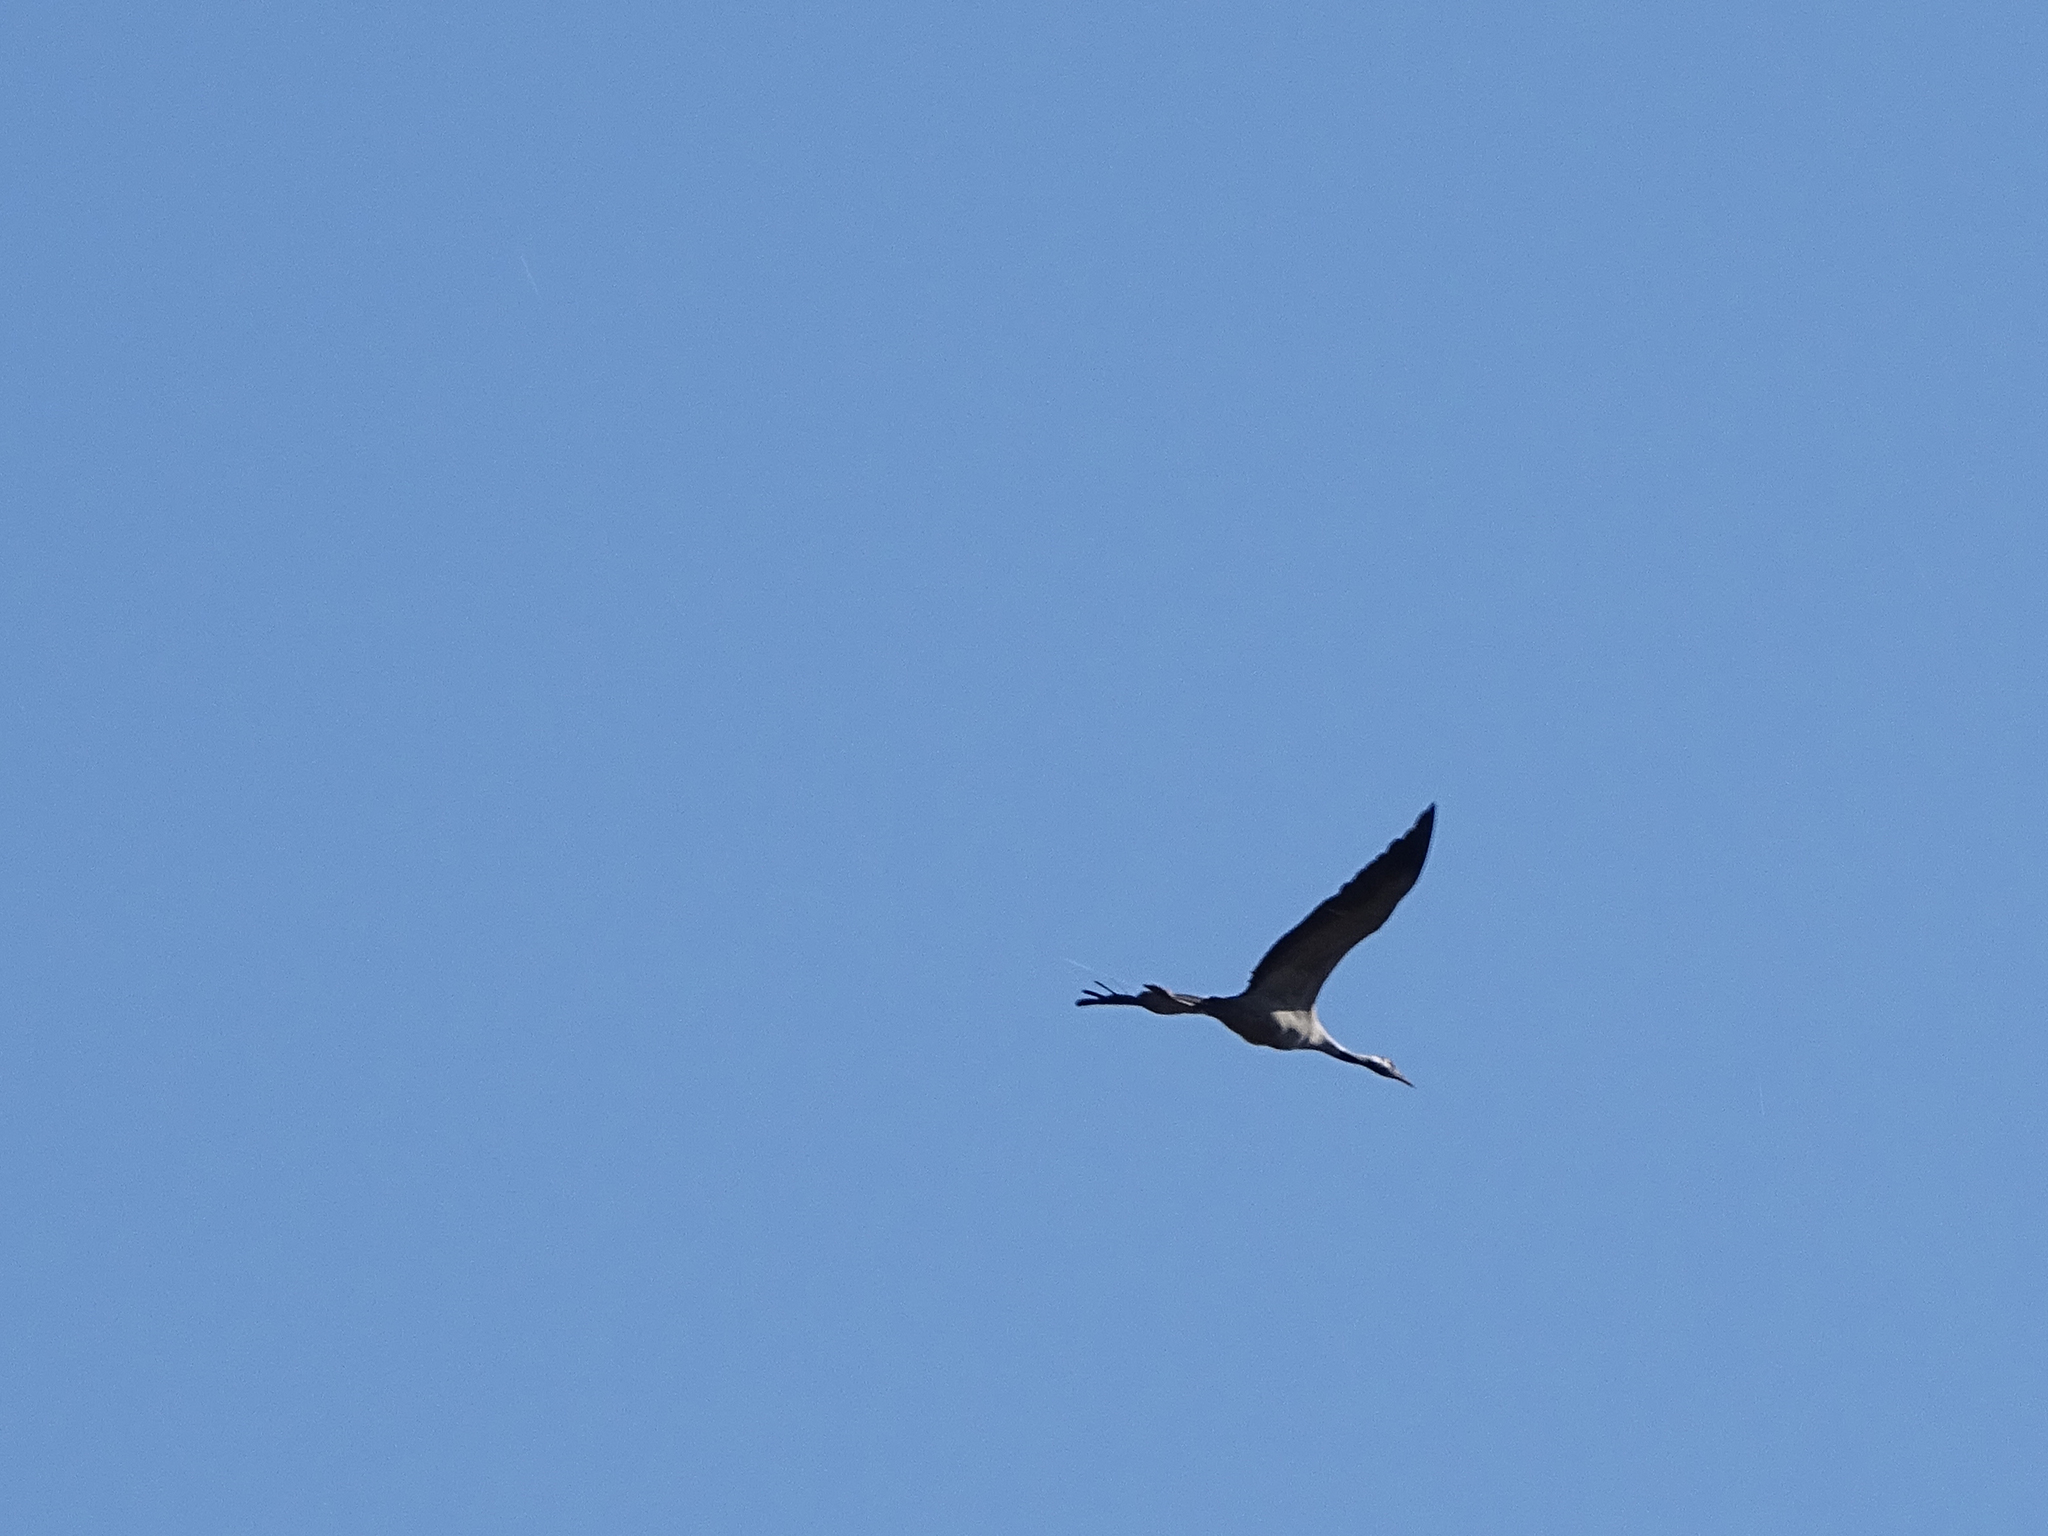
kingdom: Animalia
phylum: Chordata
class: Aves
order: Gruiformes
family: Gruidae
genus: Grus
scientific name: Grus grus
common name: Common crane
